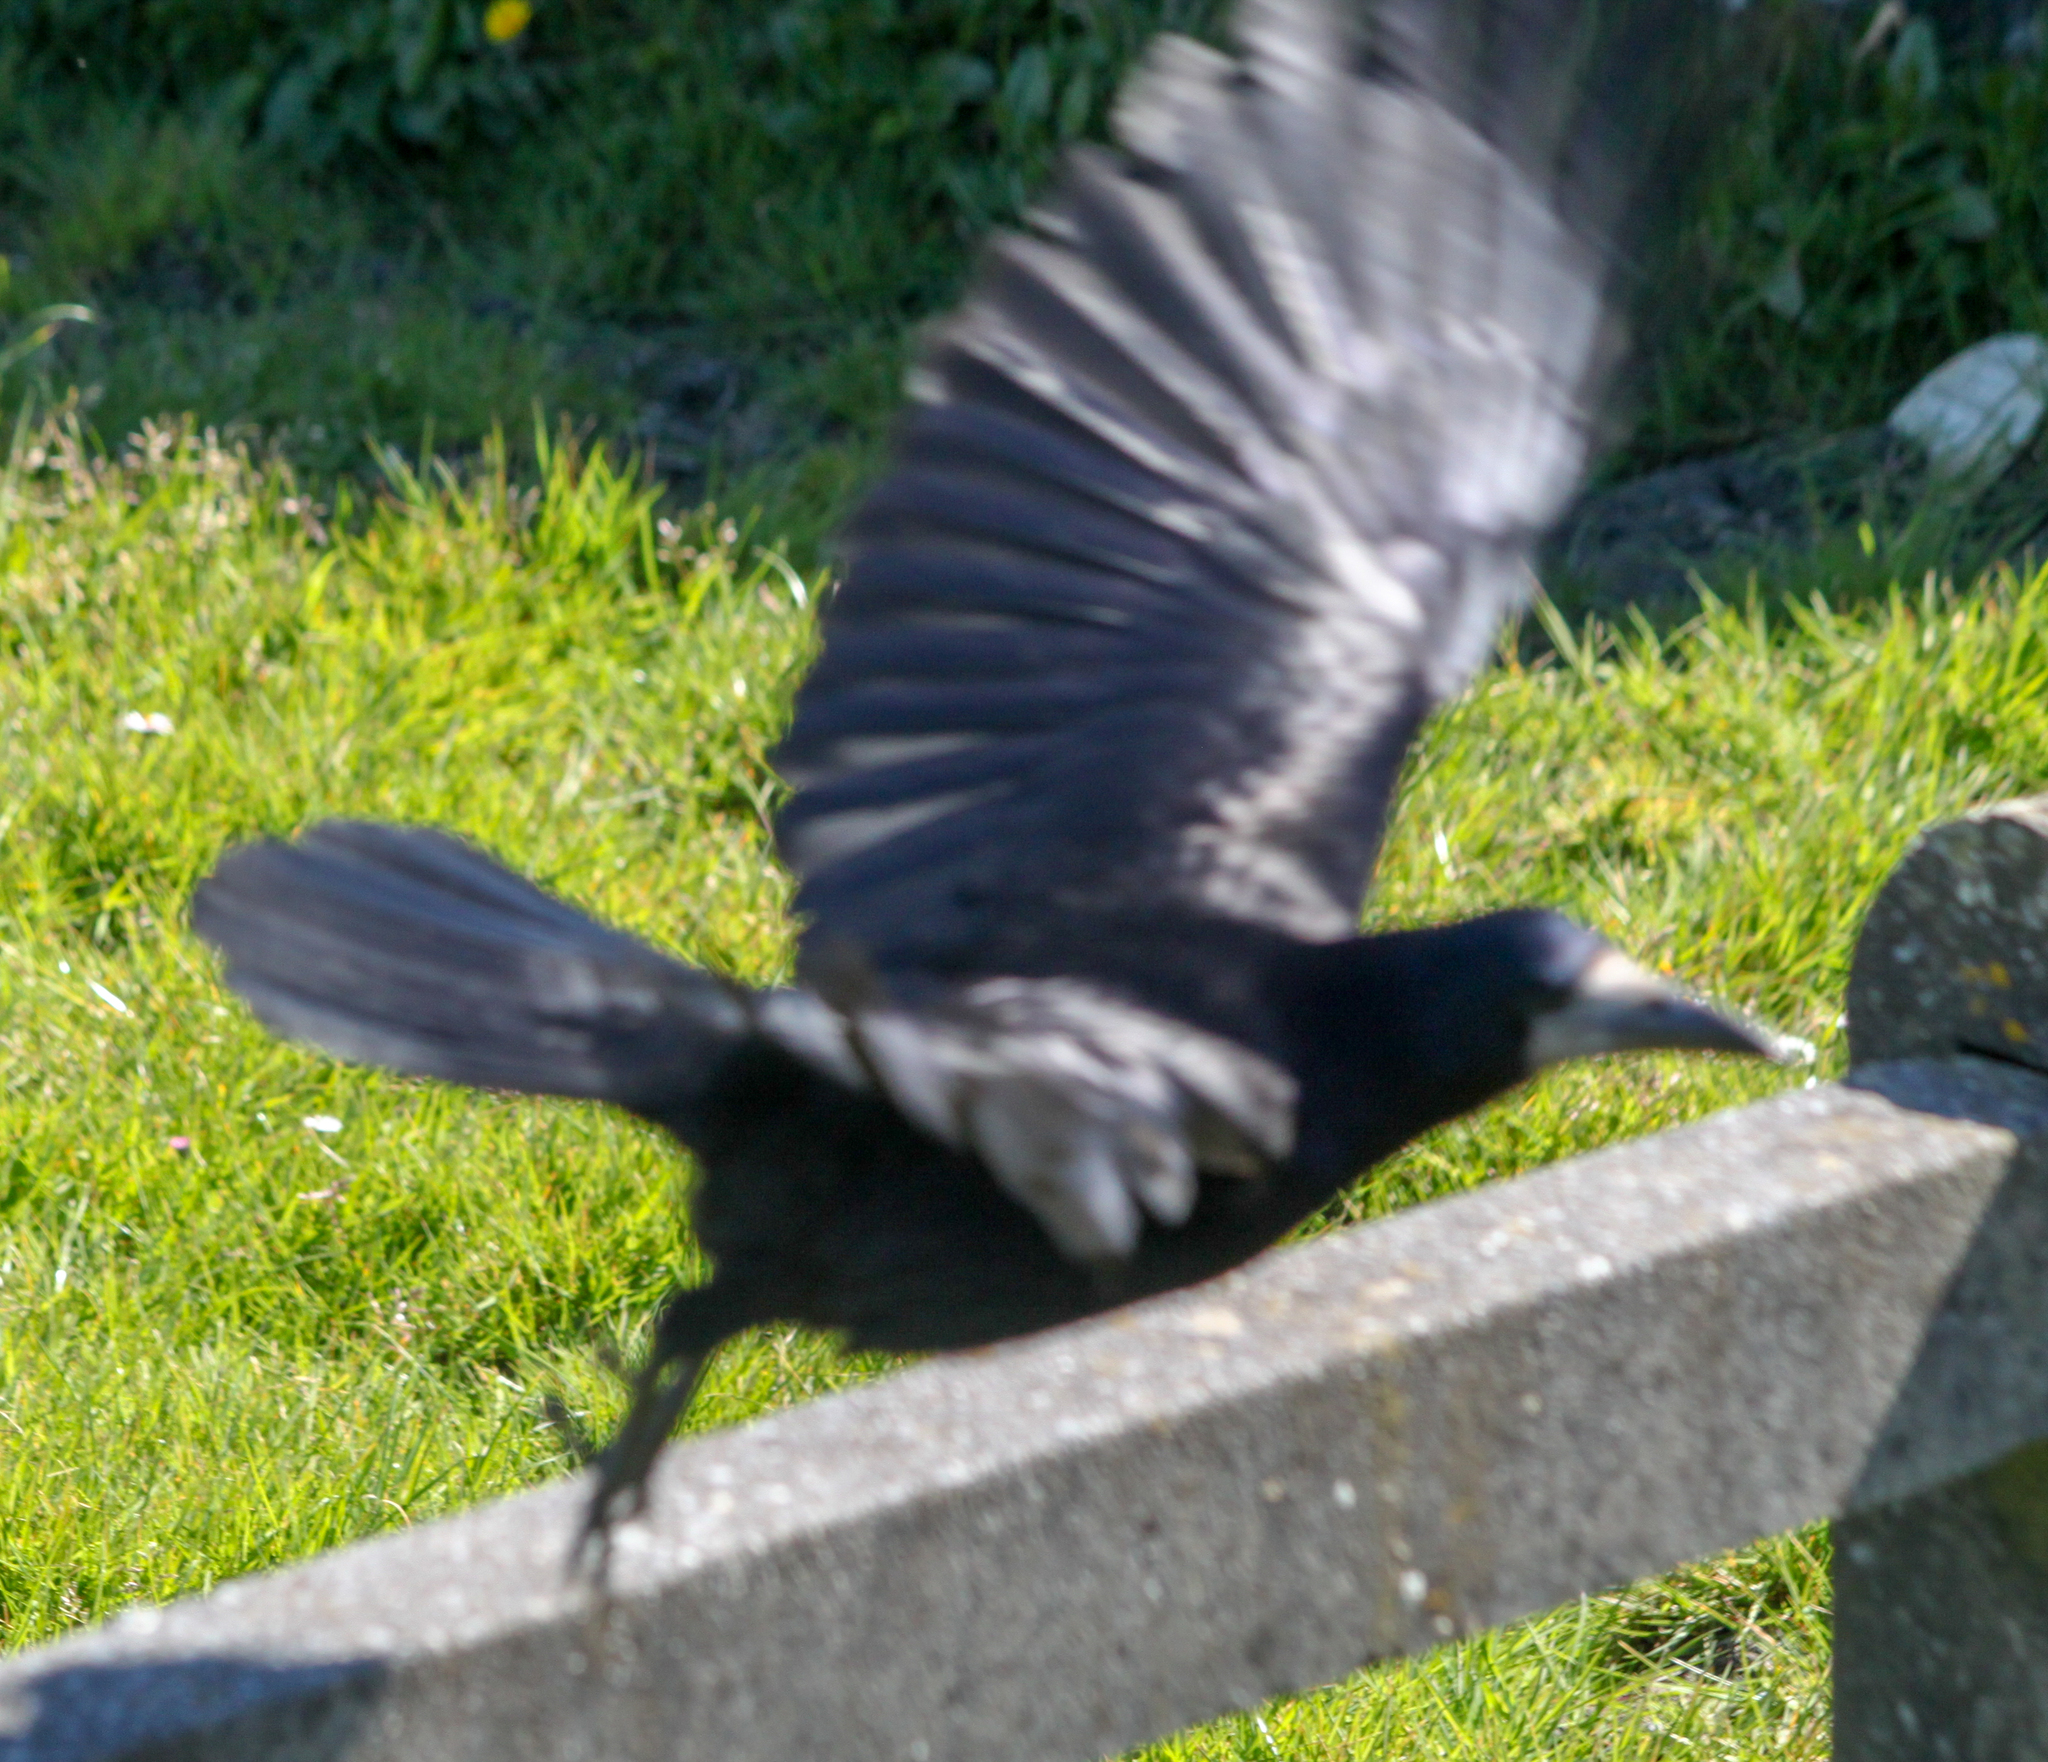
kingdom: Animalia
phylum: Chordata
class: Aves
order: Passeriformes
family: Corvidae
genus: Corvus
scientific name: Corvus frugilegus
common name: Rook
